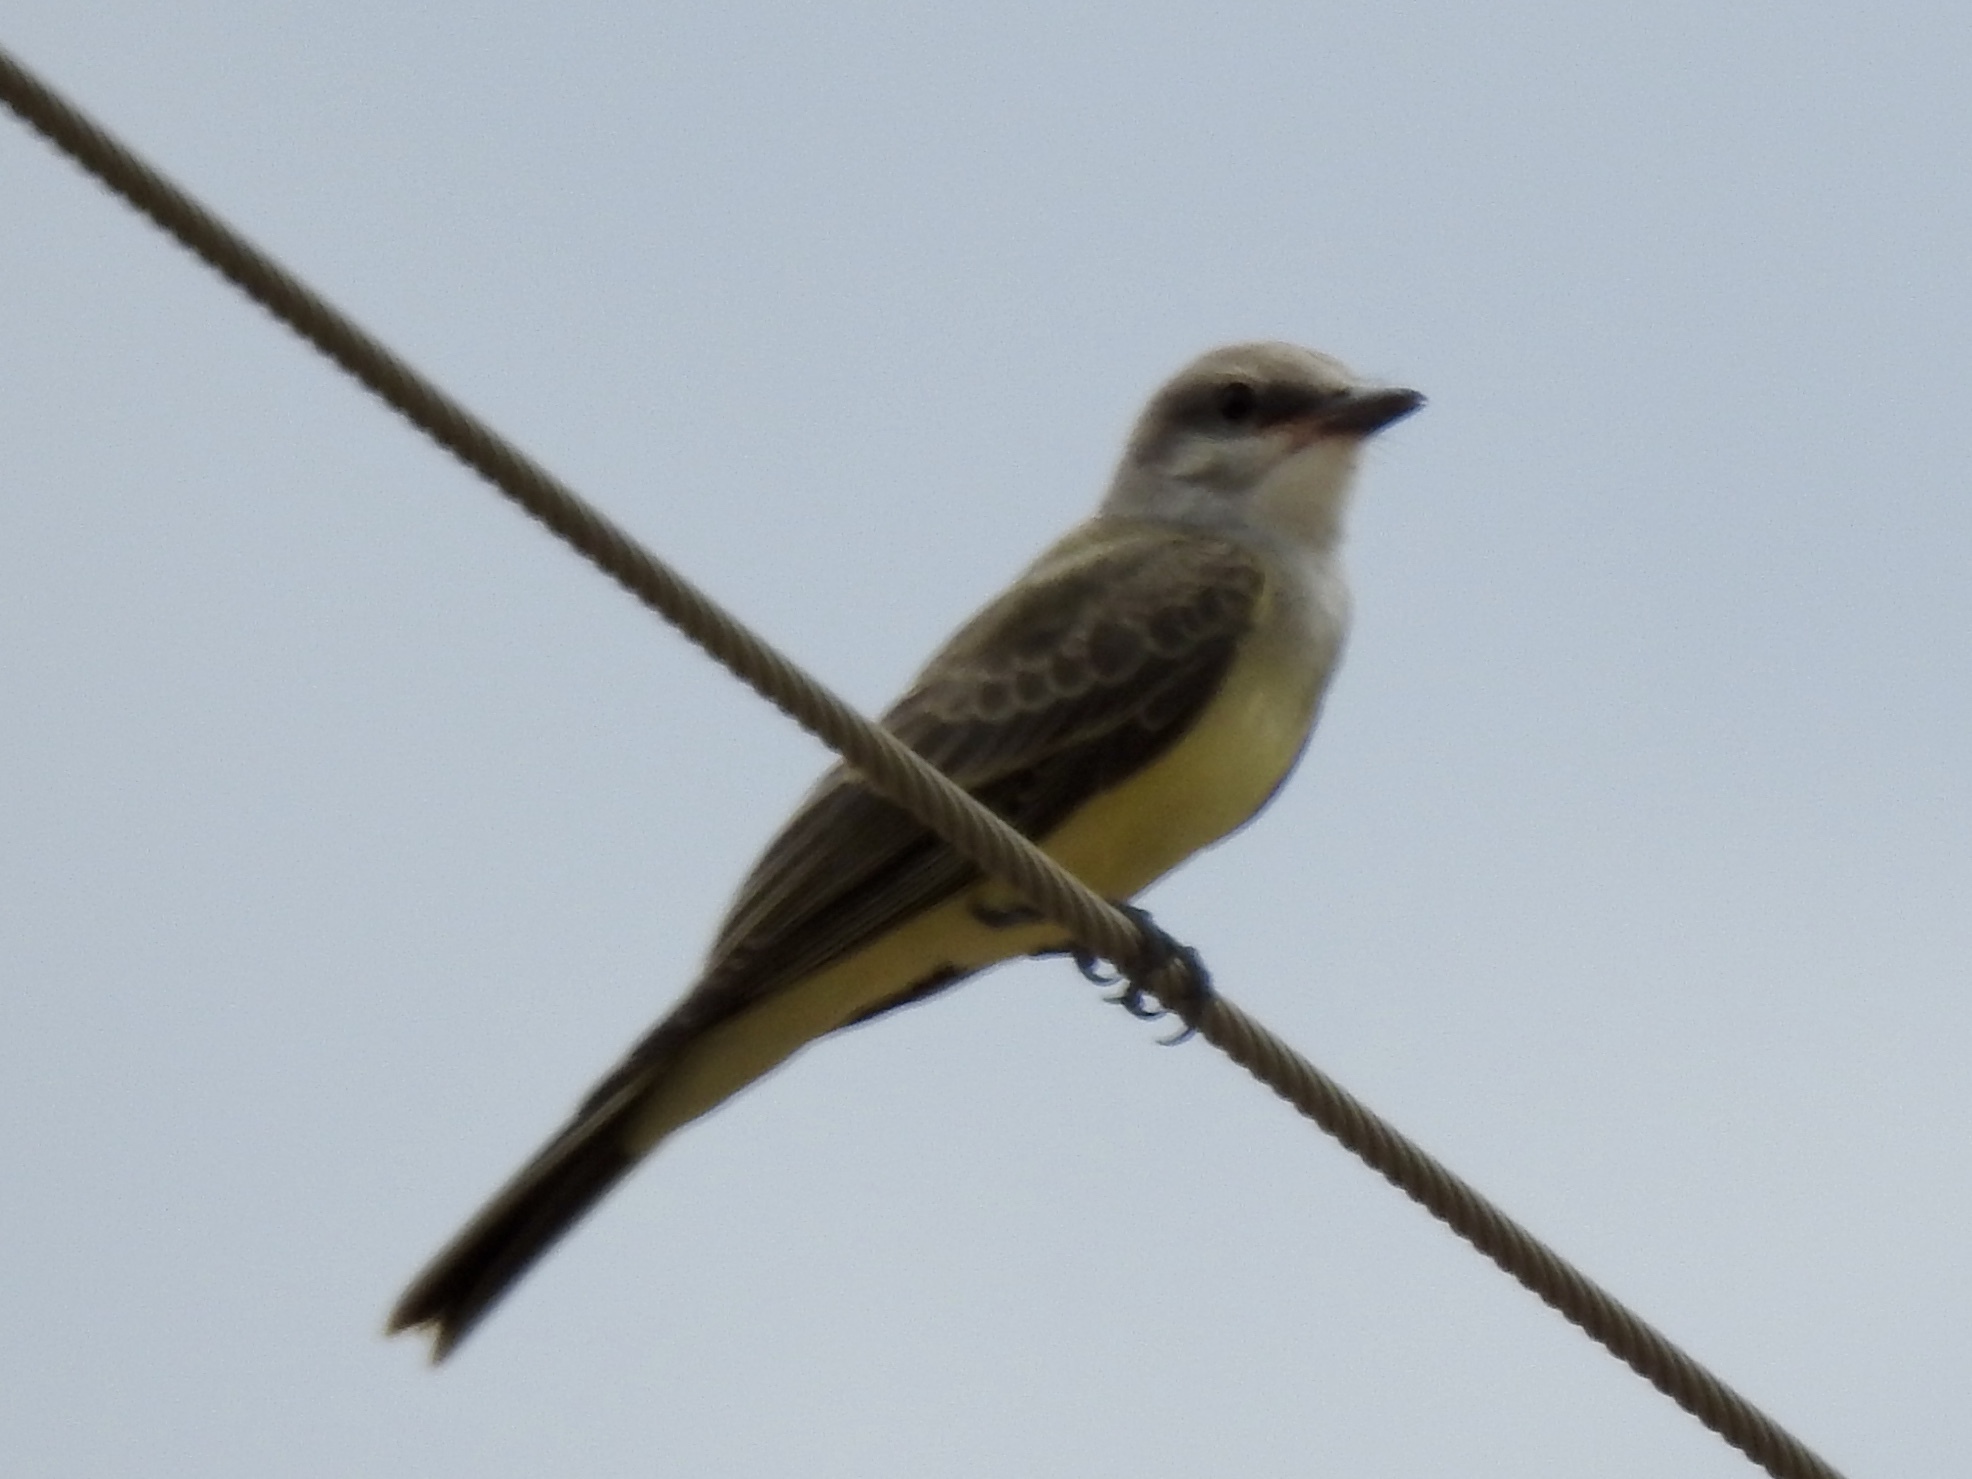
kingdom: Animalia
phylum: Chordata
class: Aves
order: Passeriformes
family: Tyrannidae
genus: Tyrannus
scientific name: Tyrannus verticalis
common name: Western kingbird
